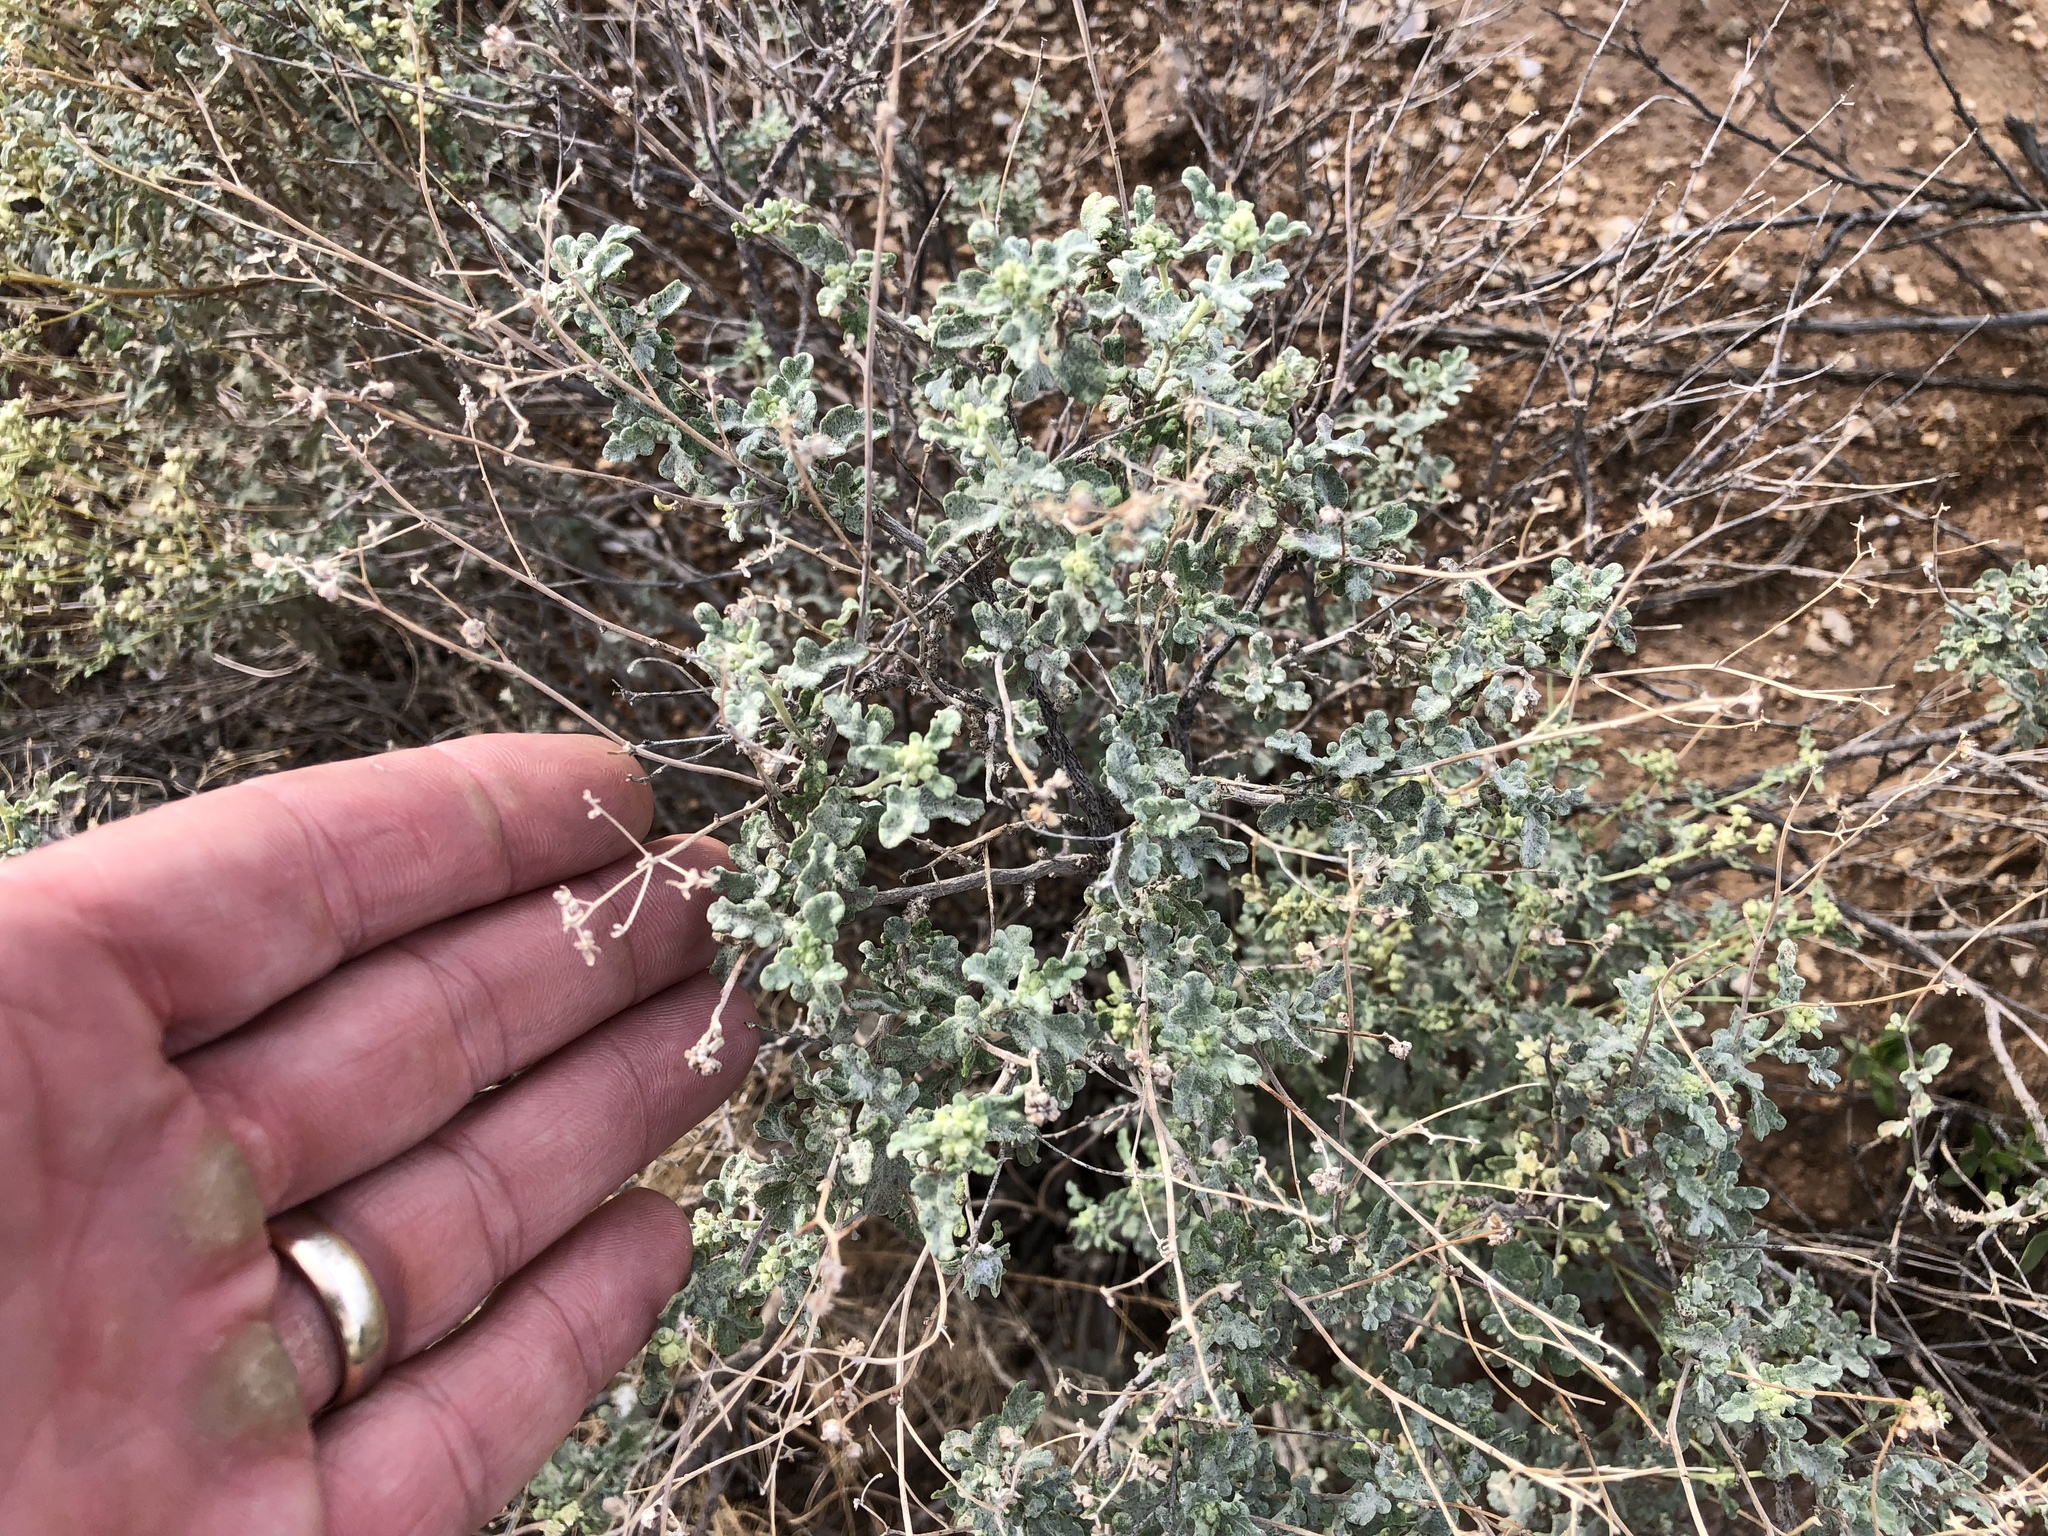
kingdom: Plantae
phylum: Tracheophyta
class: Magnoliopsida
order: Asterales
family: Asteraceae
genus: Parthenium
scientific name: Parthenium incanum
